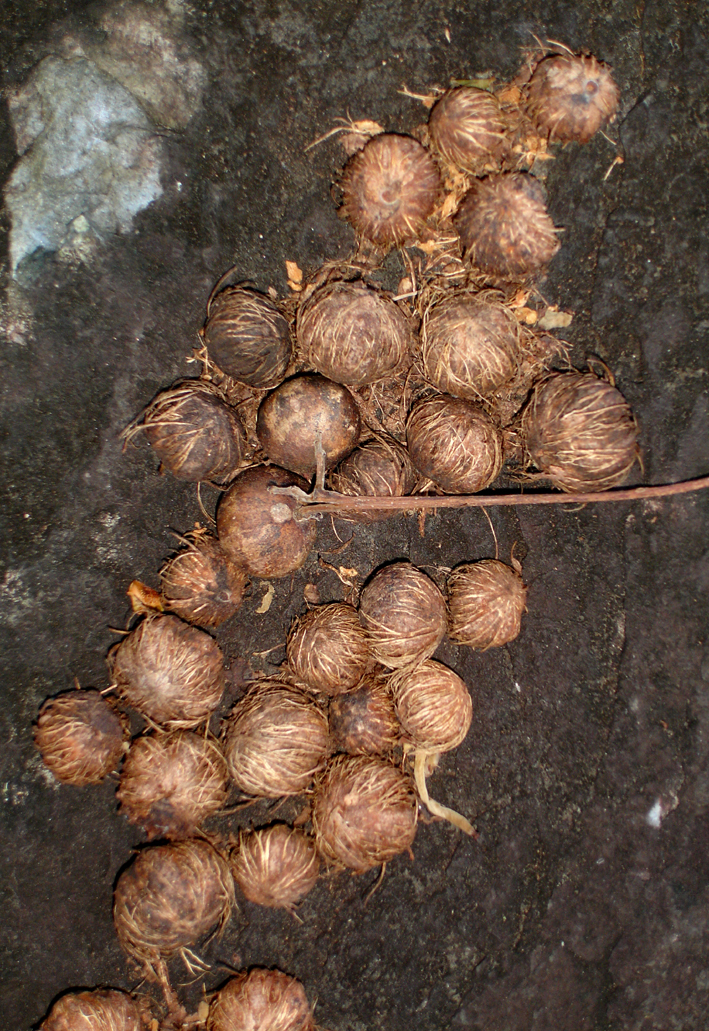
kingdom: Plantae
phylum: Tracheophyta
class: Magnoliopsida
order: Gentianales
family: Rubiaceae
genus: Guettarda
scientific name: Guettarda speciosa
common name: Sea randa
